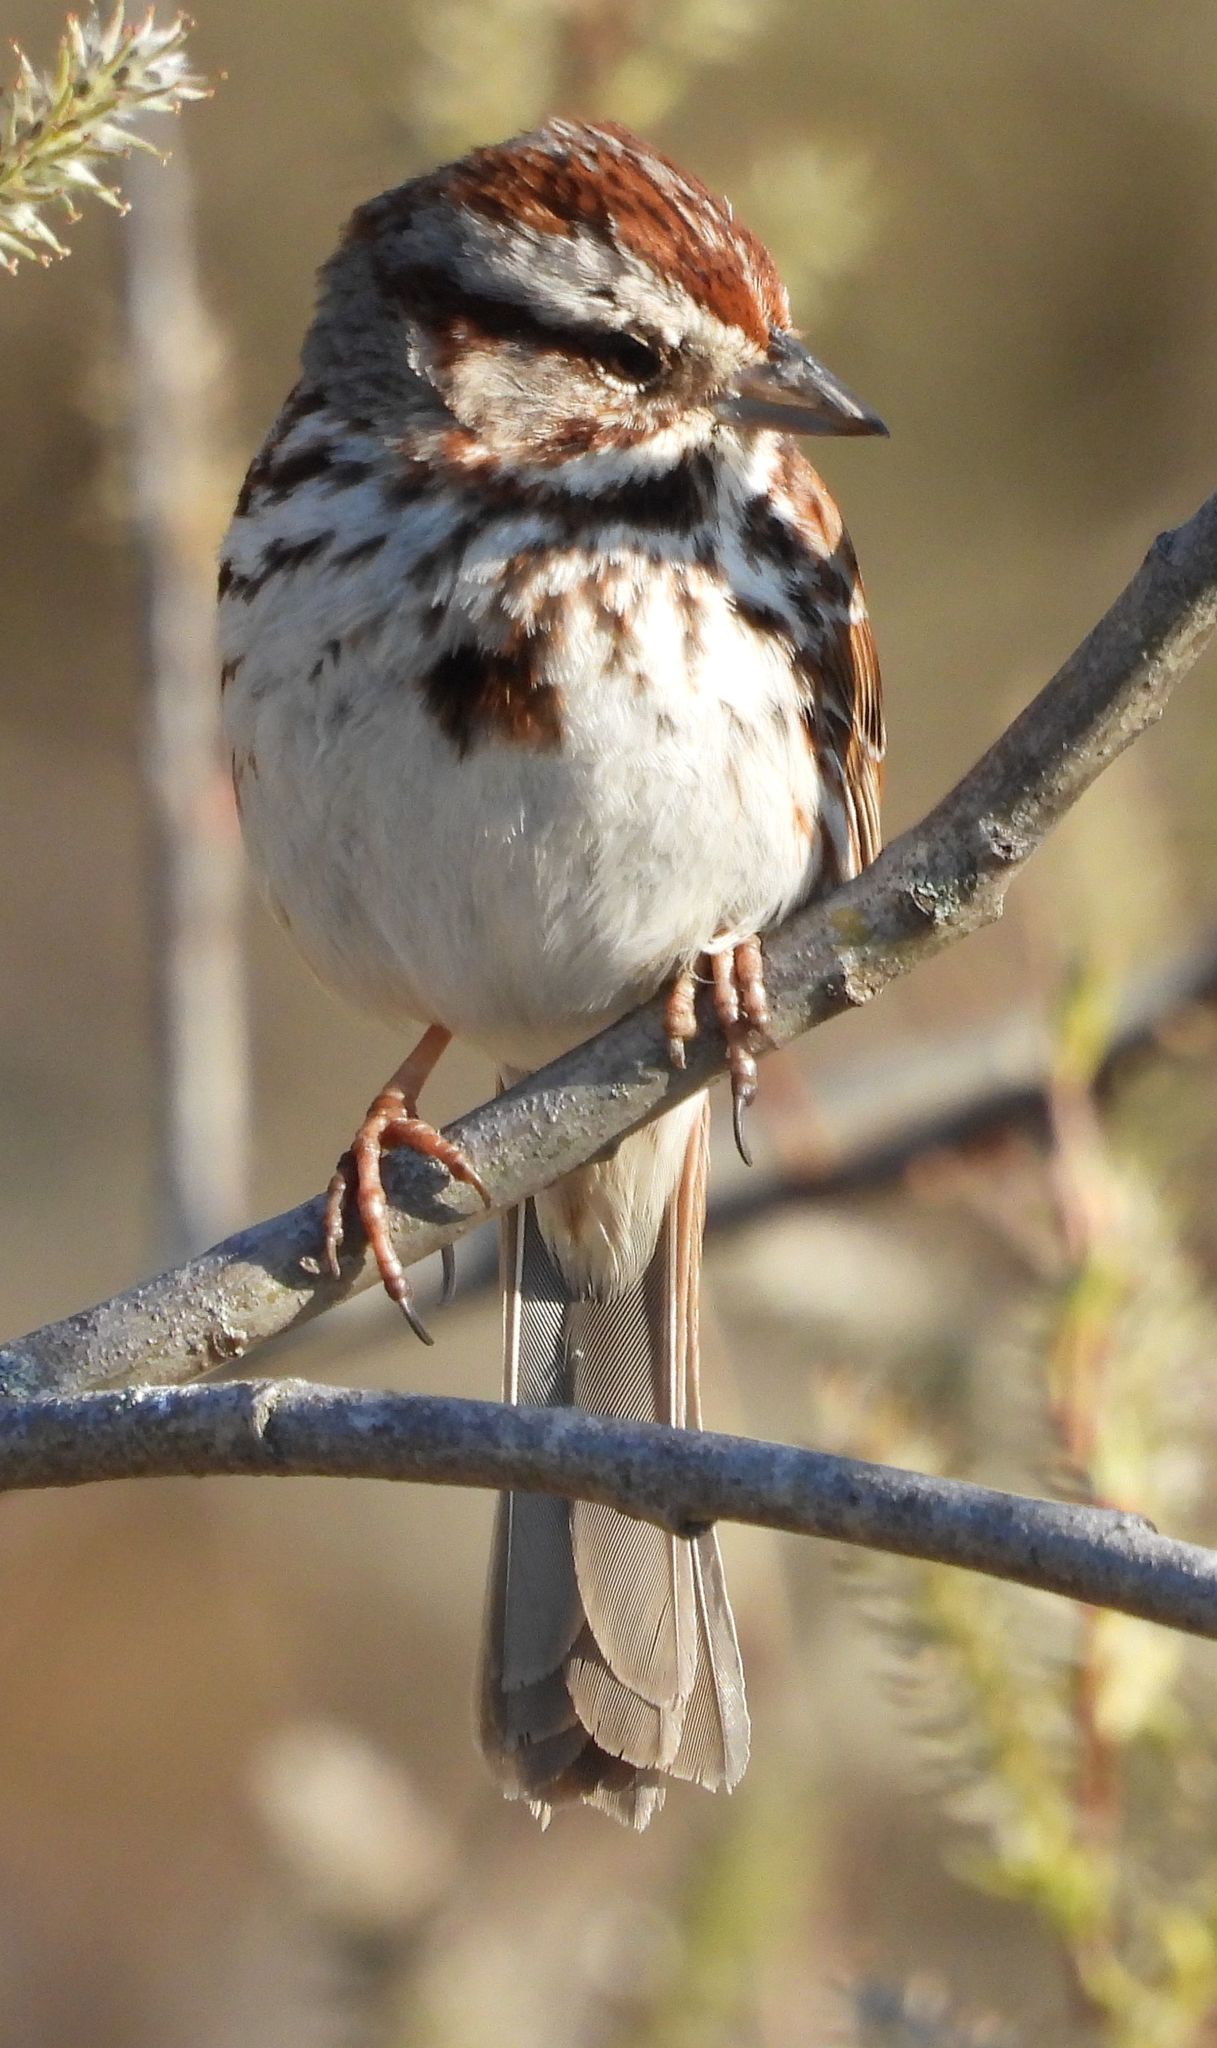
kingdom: Animalia
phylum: Chordata
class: Aves
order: Passeriformes
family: Passerellidae
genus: Melospiza
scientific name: Melospiza melodia
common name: Song sparrow
